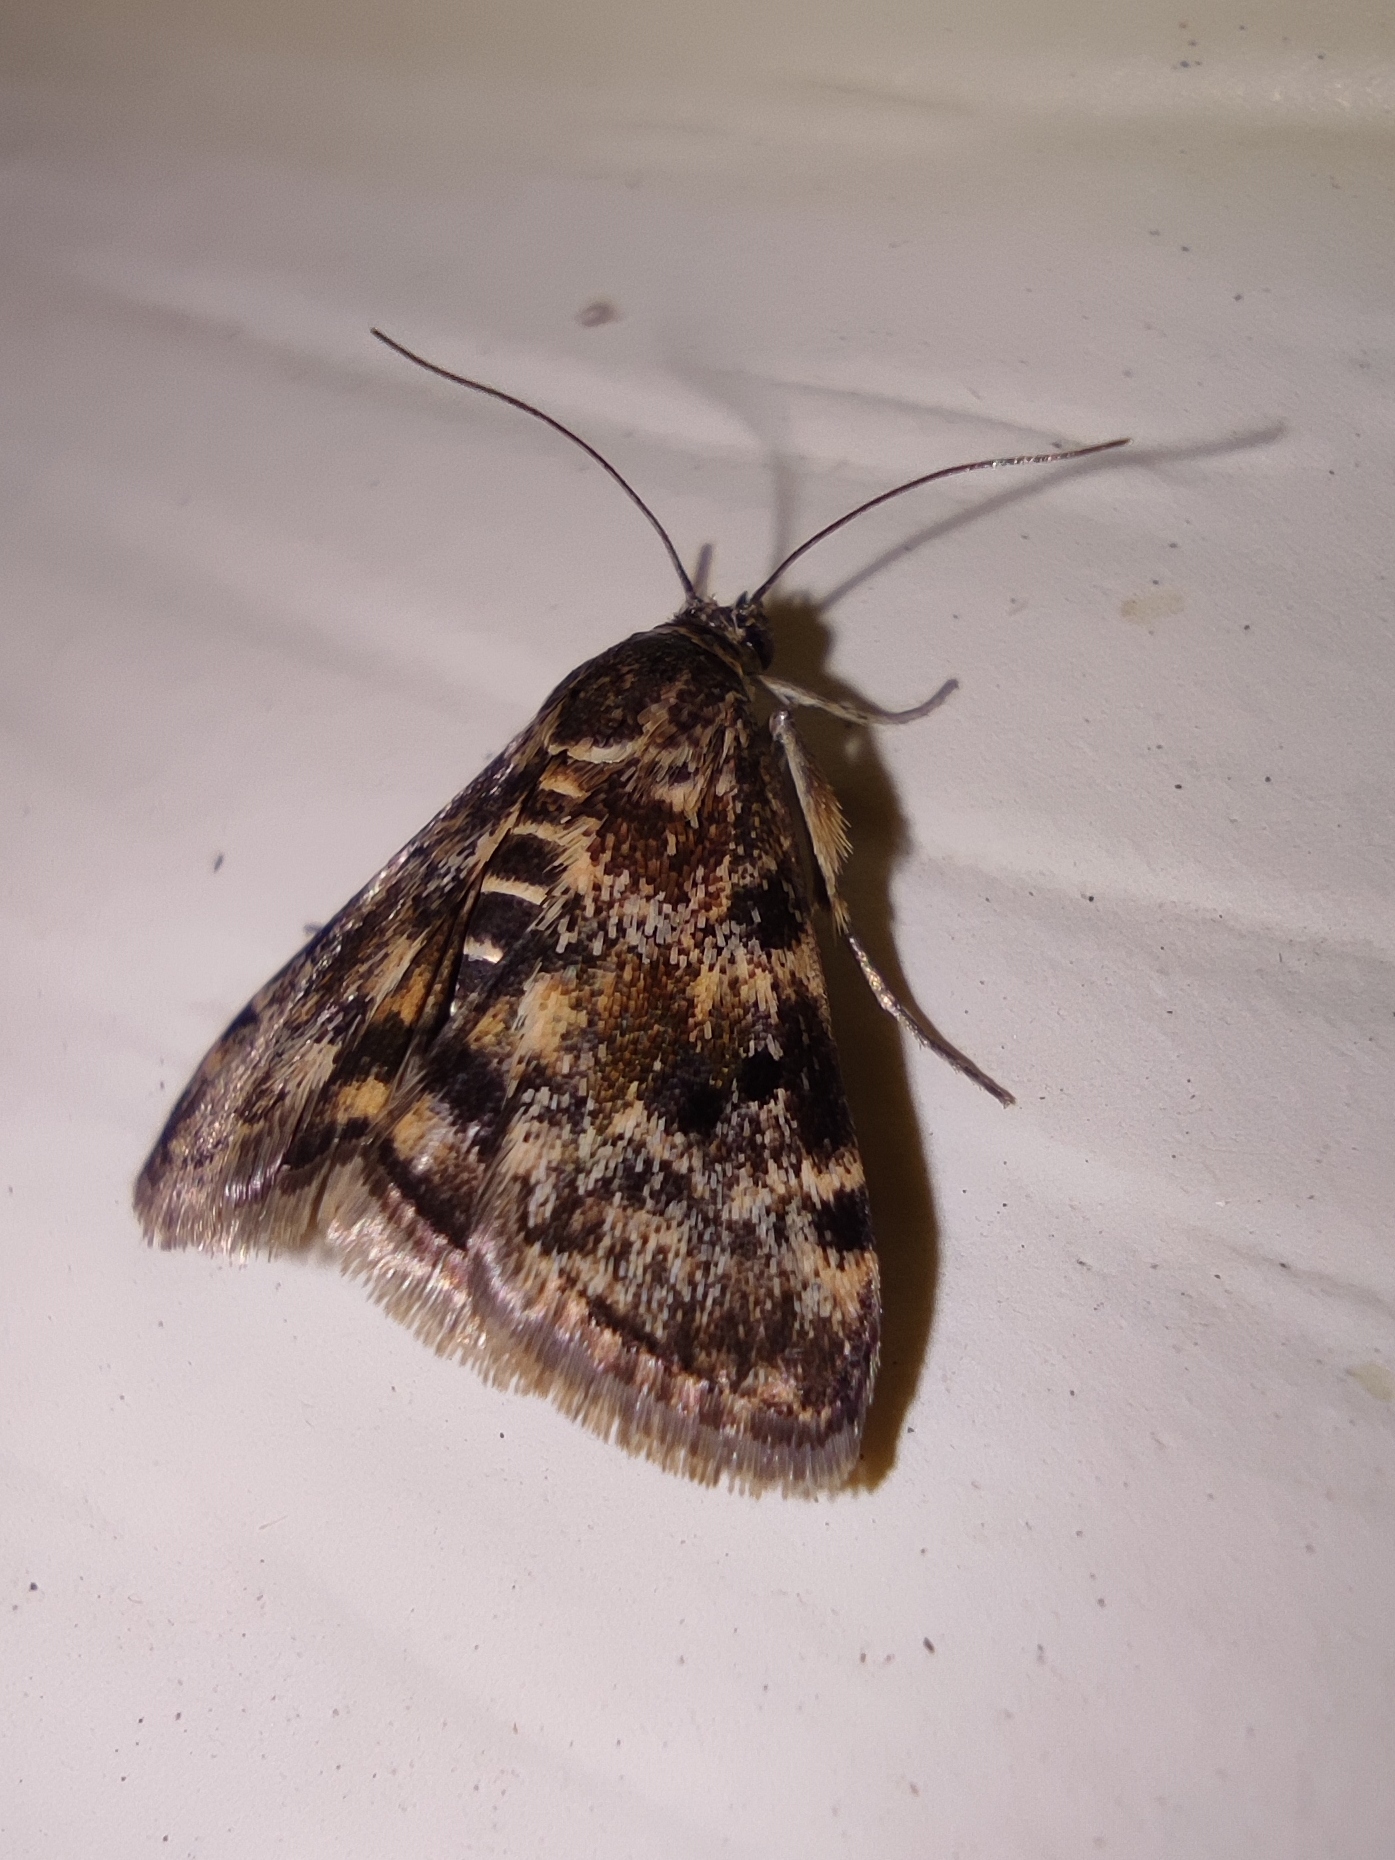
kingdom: Animalia
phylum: Arthropoda
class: Insecta
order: Lepidoptera
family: Crambidae
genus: Noctuelia
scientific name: Noctuelia Aporodes floralis
